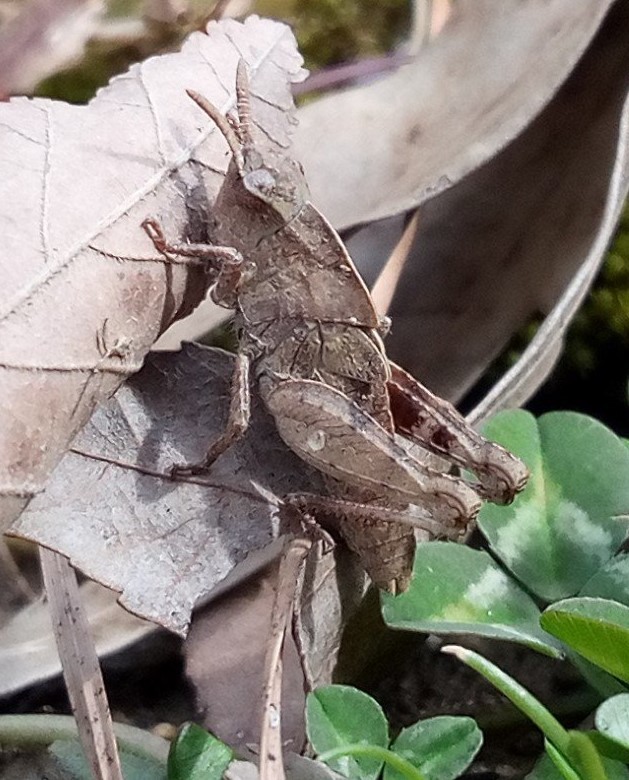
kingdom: Animalia
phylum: Arthropoda
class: Insecta
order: Orthoptera
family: Acrididae
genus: Chortophaga
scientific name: Chortophaga viridifasciata
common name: Green-striped grasshopper
